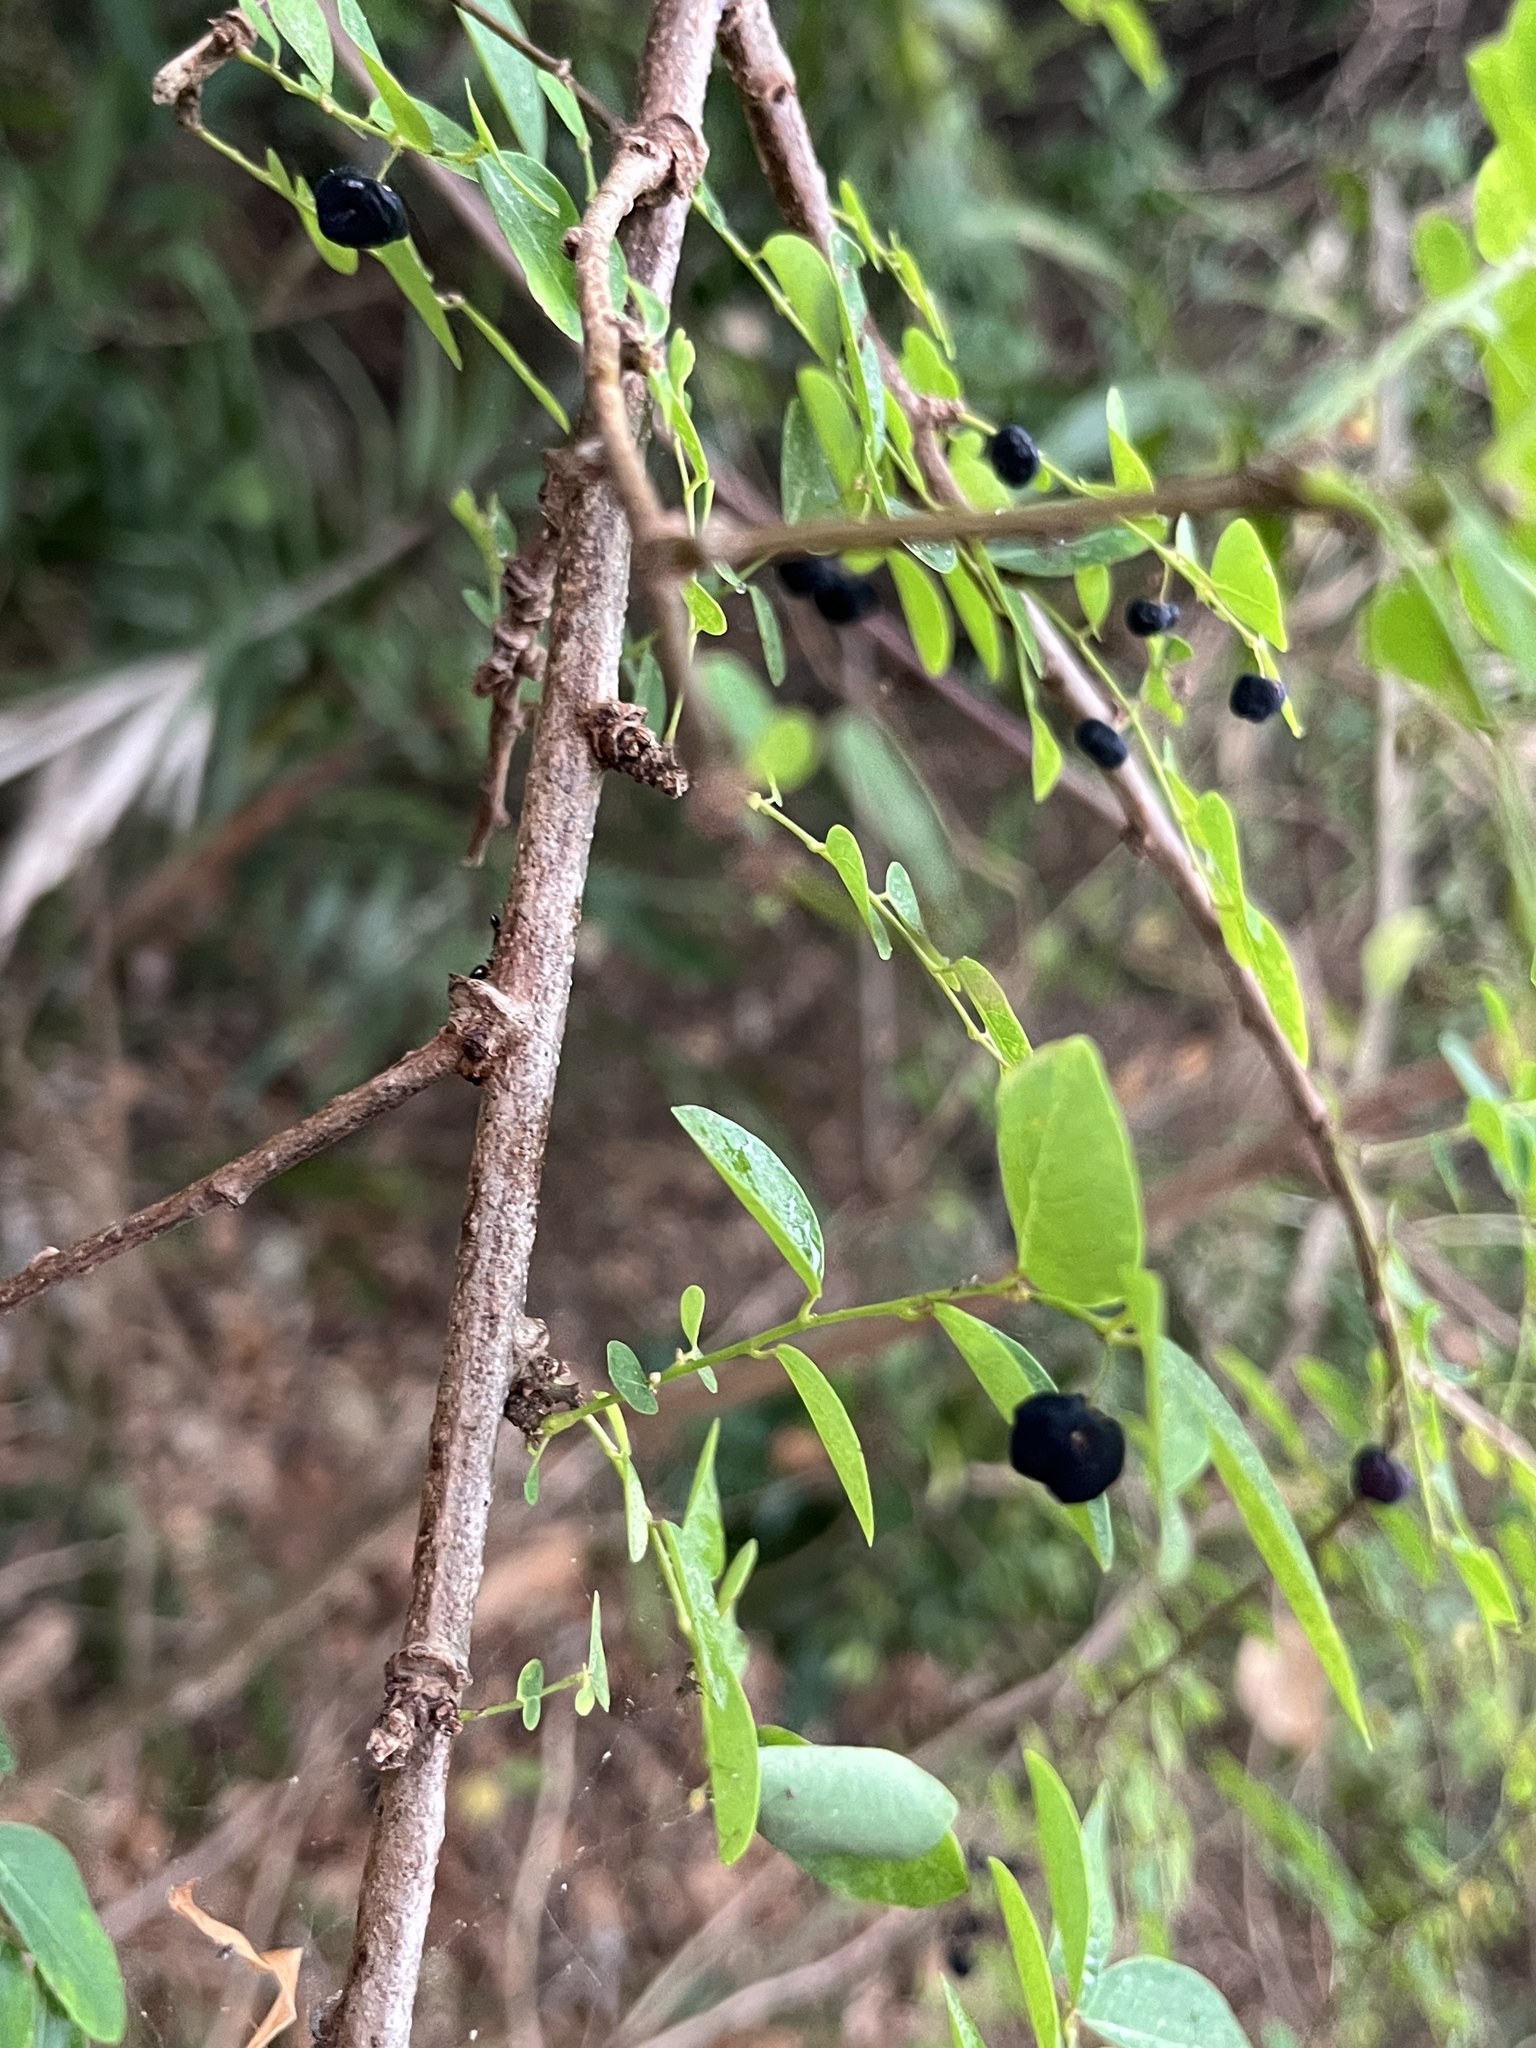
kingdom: Plantae
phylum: Tracheophyta
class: Magnoliopsida
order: Malpighiales
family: Phyllanthaceae
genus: Phyllanthus
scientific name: Phyllanthus reticulatus
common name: Potato bush
